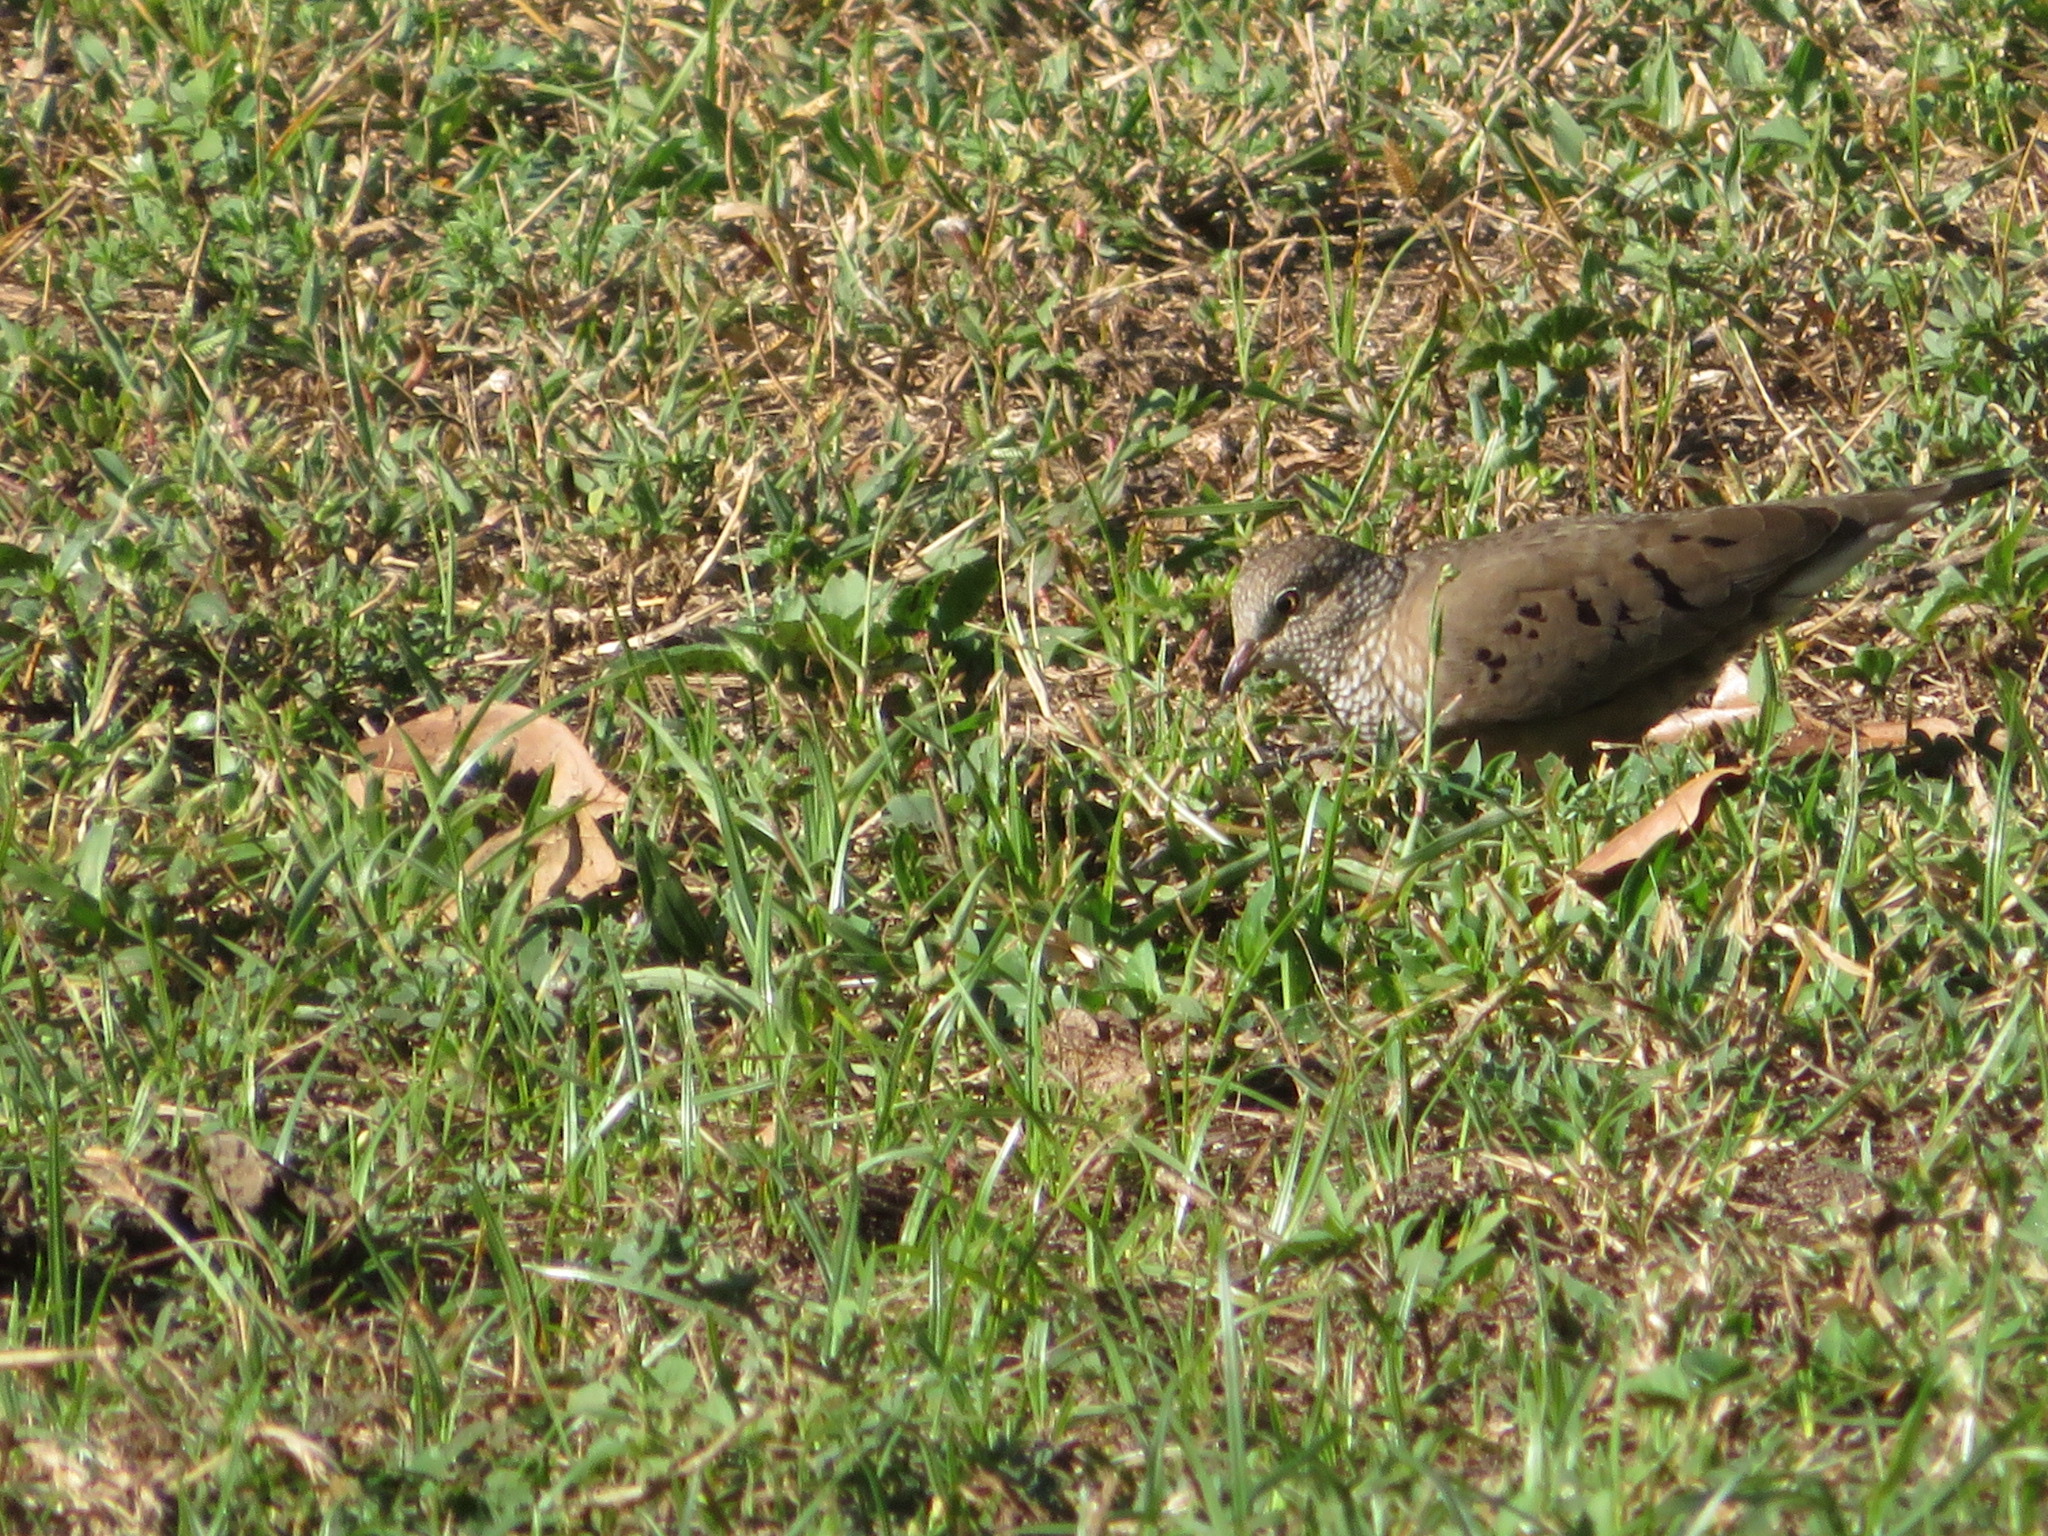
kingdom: Animalia
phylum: Chordata
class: Aves
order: Columbiformes
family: Columbidae
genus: Columbina
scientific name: Columbina passerina
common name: Common ground-dove
